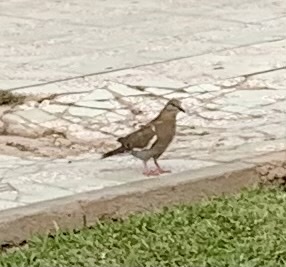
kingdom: Animalia
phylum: Chordata
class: Aves
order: Columbiformes
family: Columbidae
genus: Zenaida
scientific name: Zenaida meloda
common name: West peruvian dove
